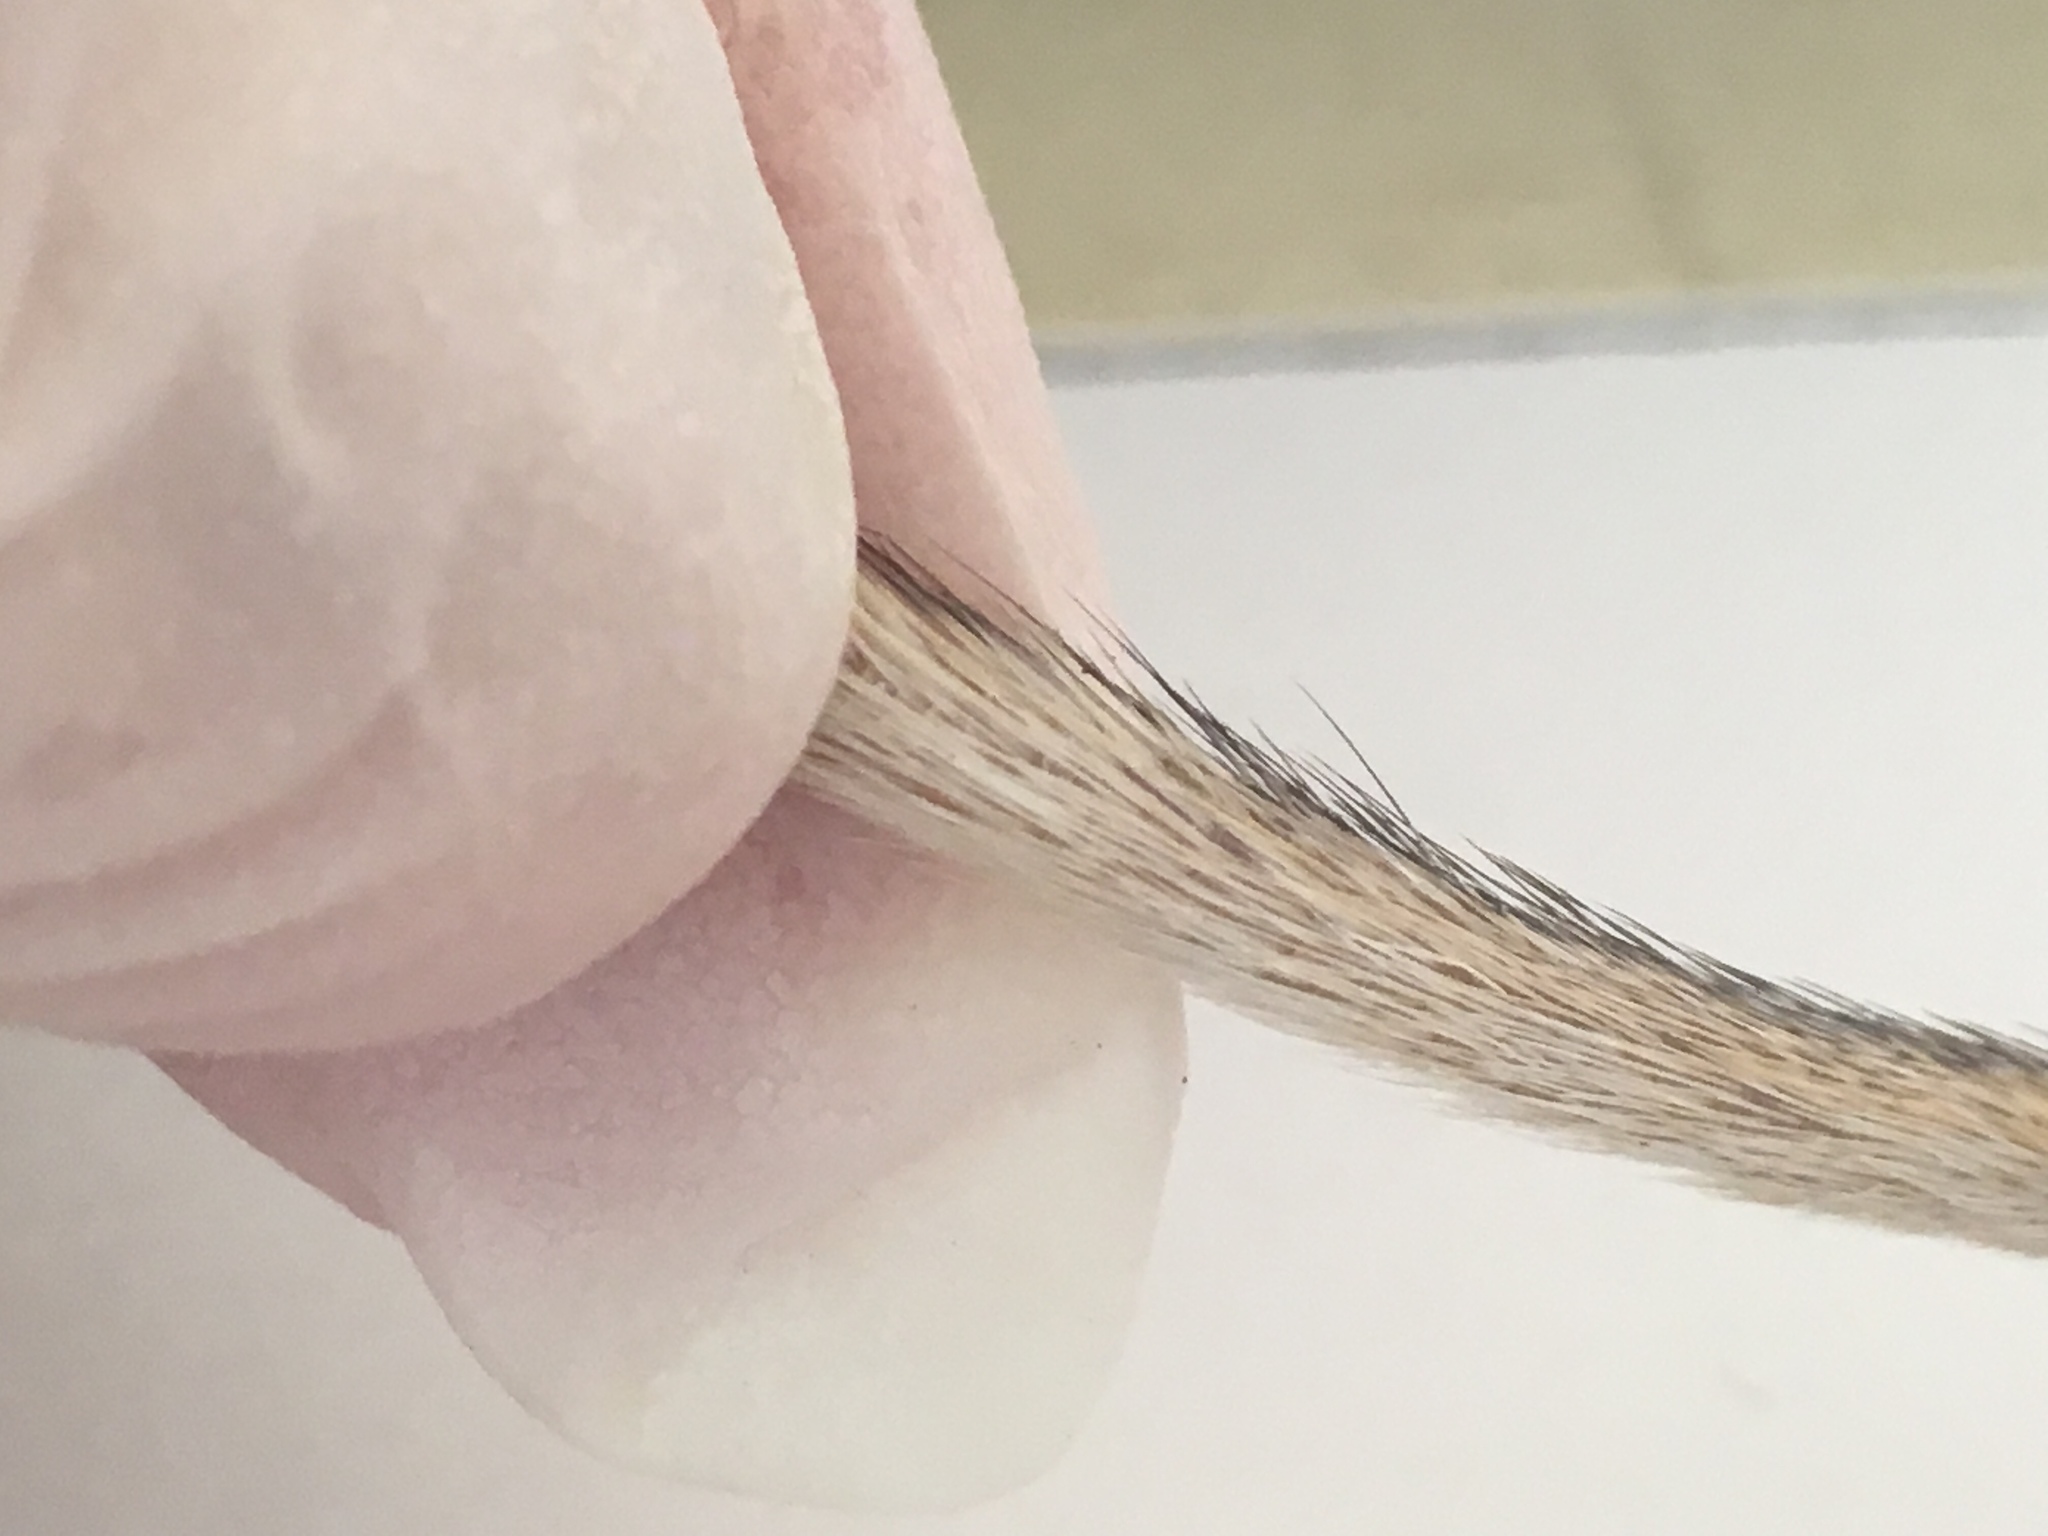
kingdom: Animalia
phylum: Chordata
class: Mammalia
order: Rodentia
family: Heteromyidae
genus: Chaetodipus
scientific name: Chaetodipus penicillatus
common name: Desert pocket mouse
